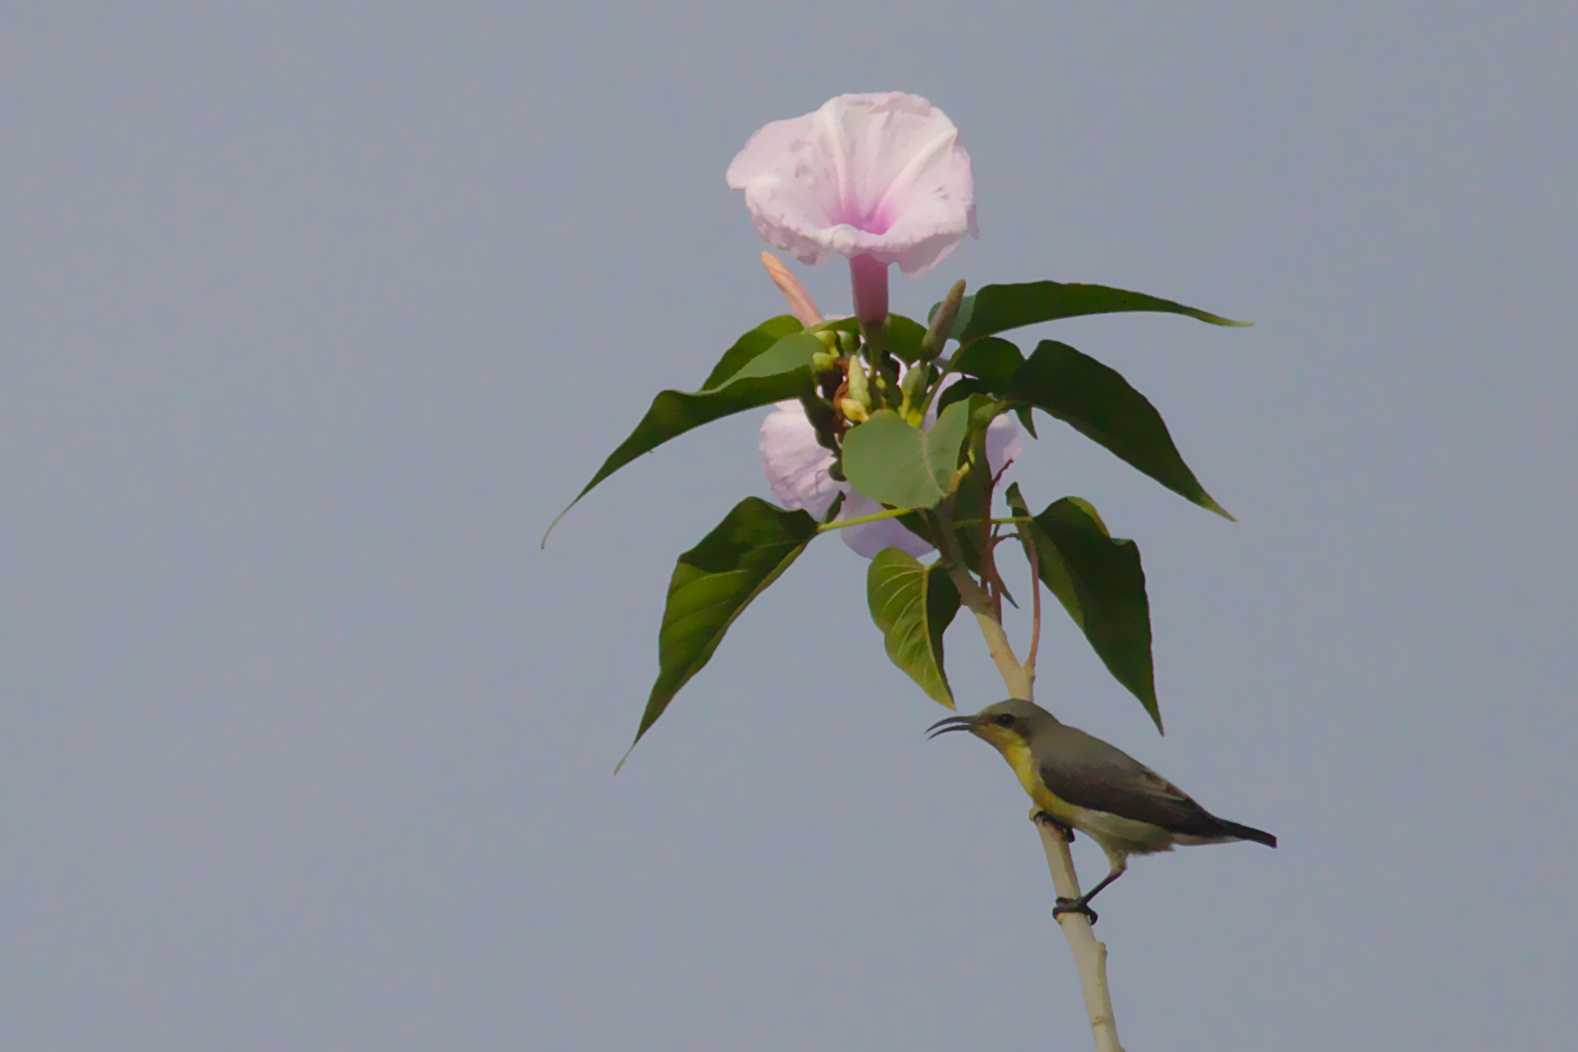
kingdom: Animalia
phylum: Chordata
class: Aves
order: Passeriformes
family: Nectariniidae
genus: Cinnyris
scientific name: Cinnyris asiaticus
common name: Purple sunbird
